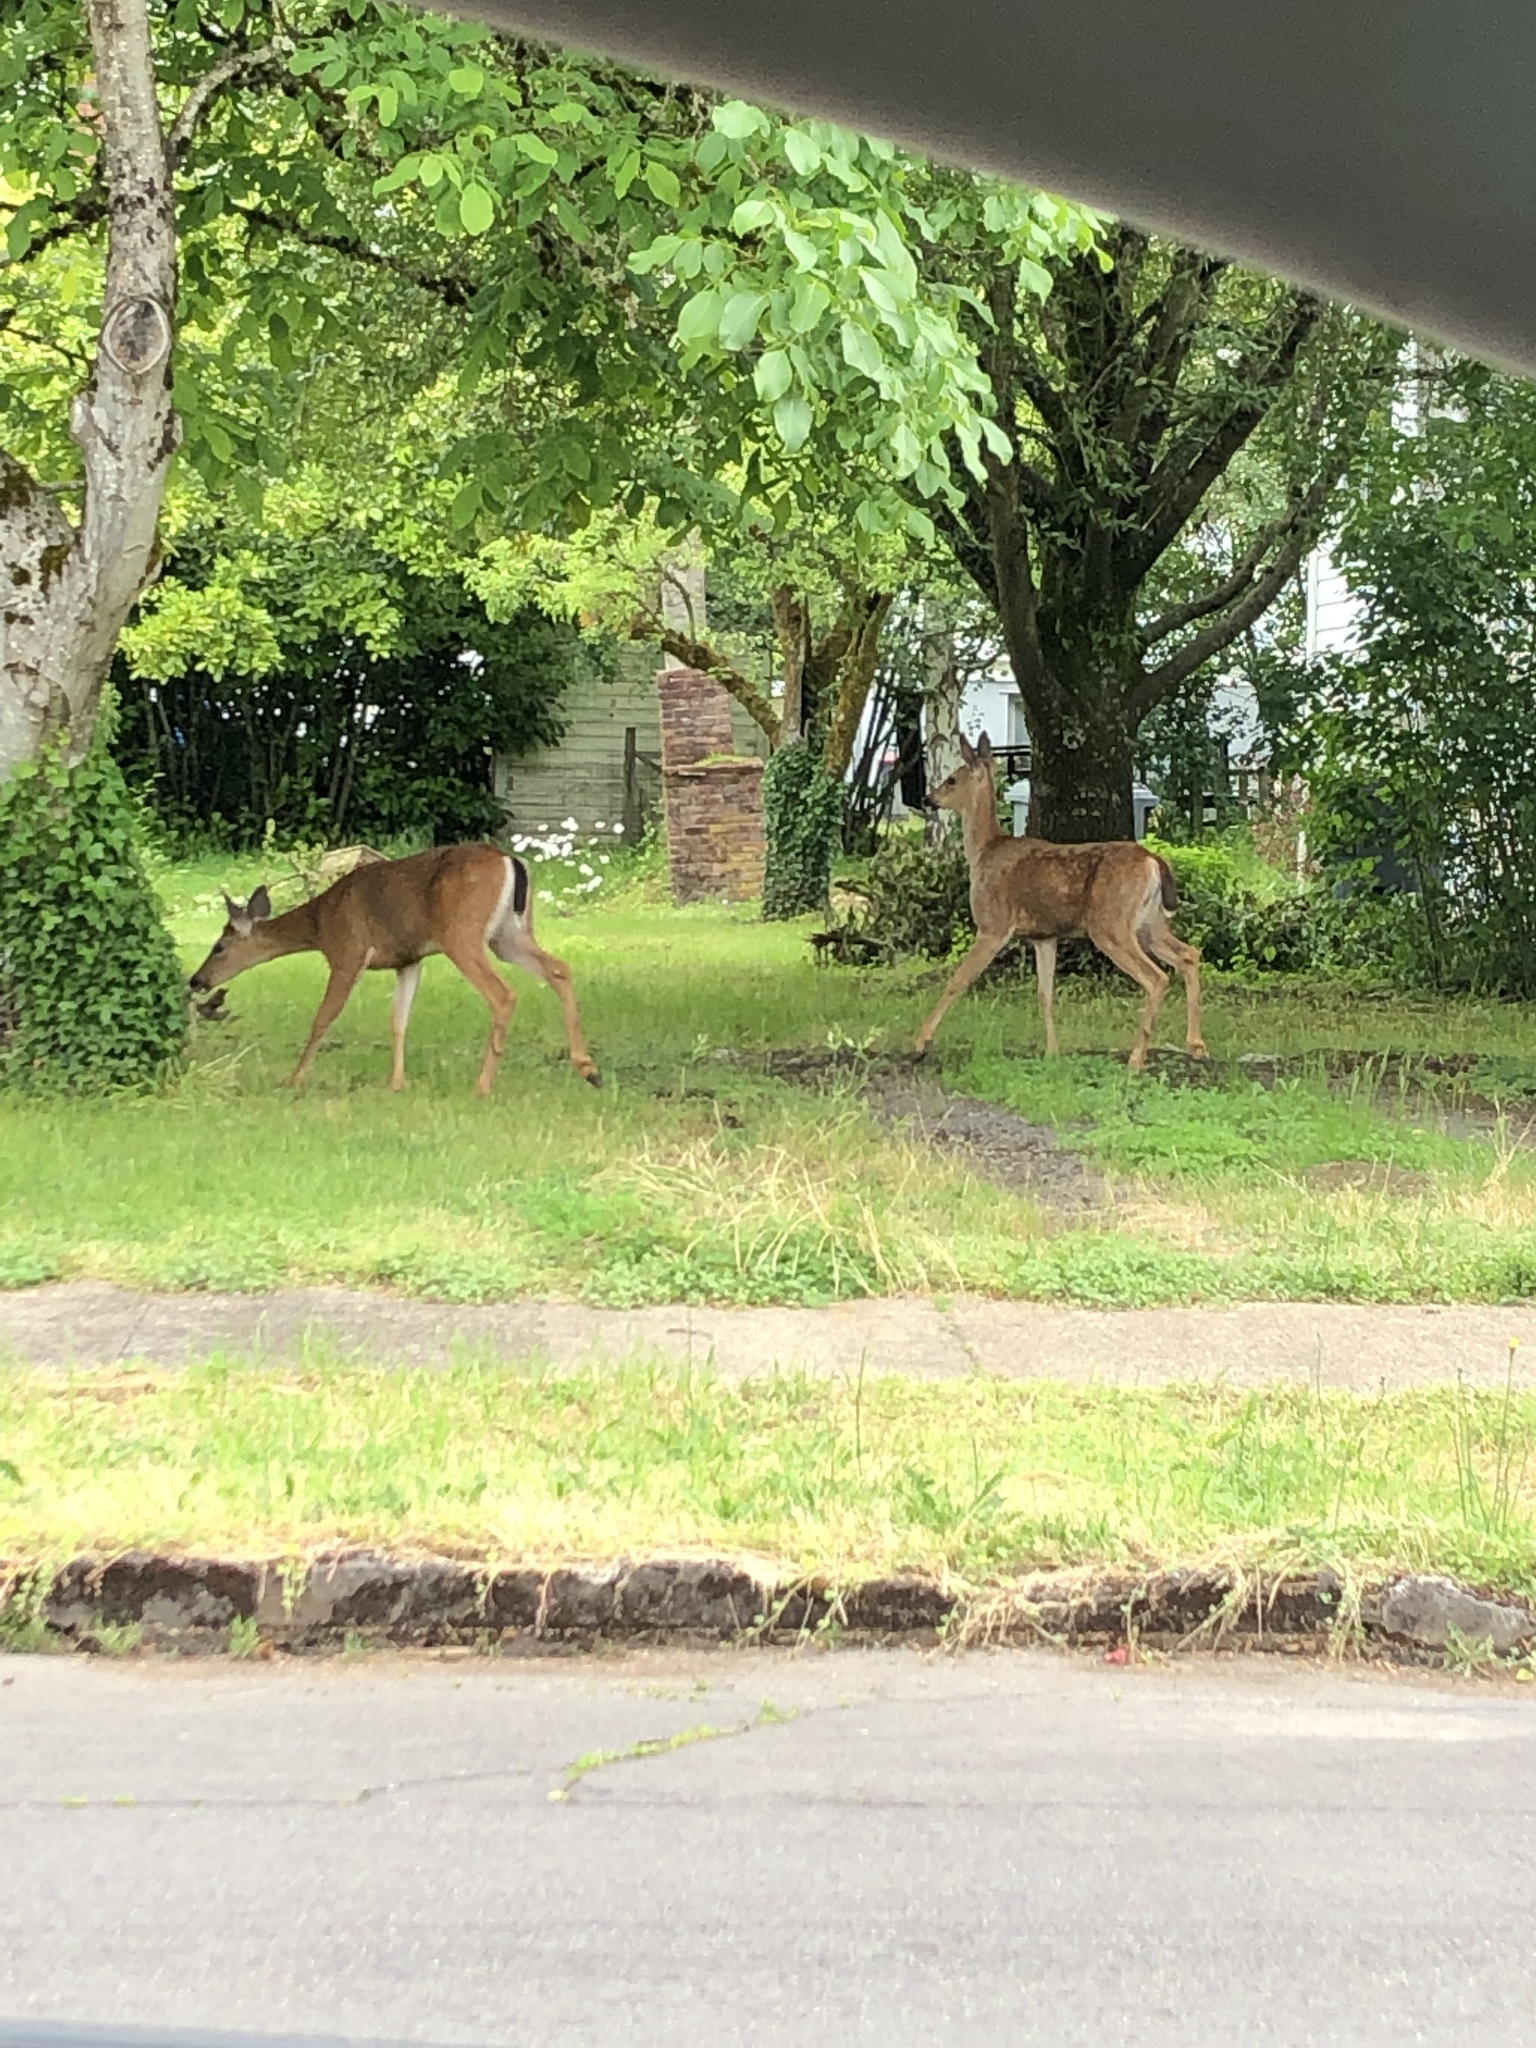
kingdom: Animalia
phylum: Chordata
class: Mammalia
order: Artiodactyla
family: Cervidae
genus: Odocoileus
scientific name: Odocoileus hemionus
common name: Mule deer
